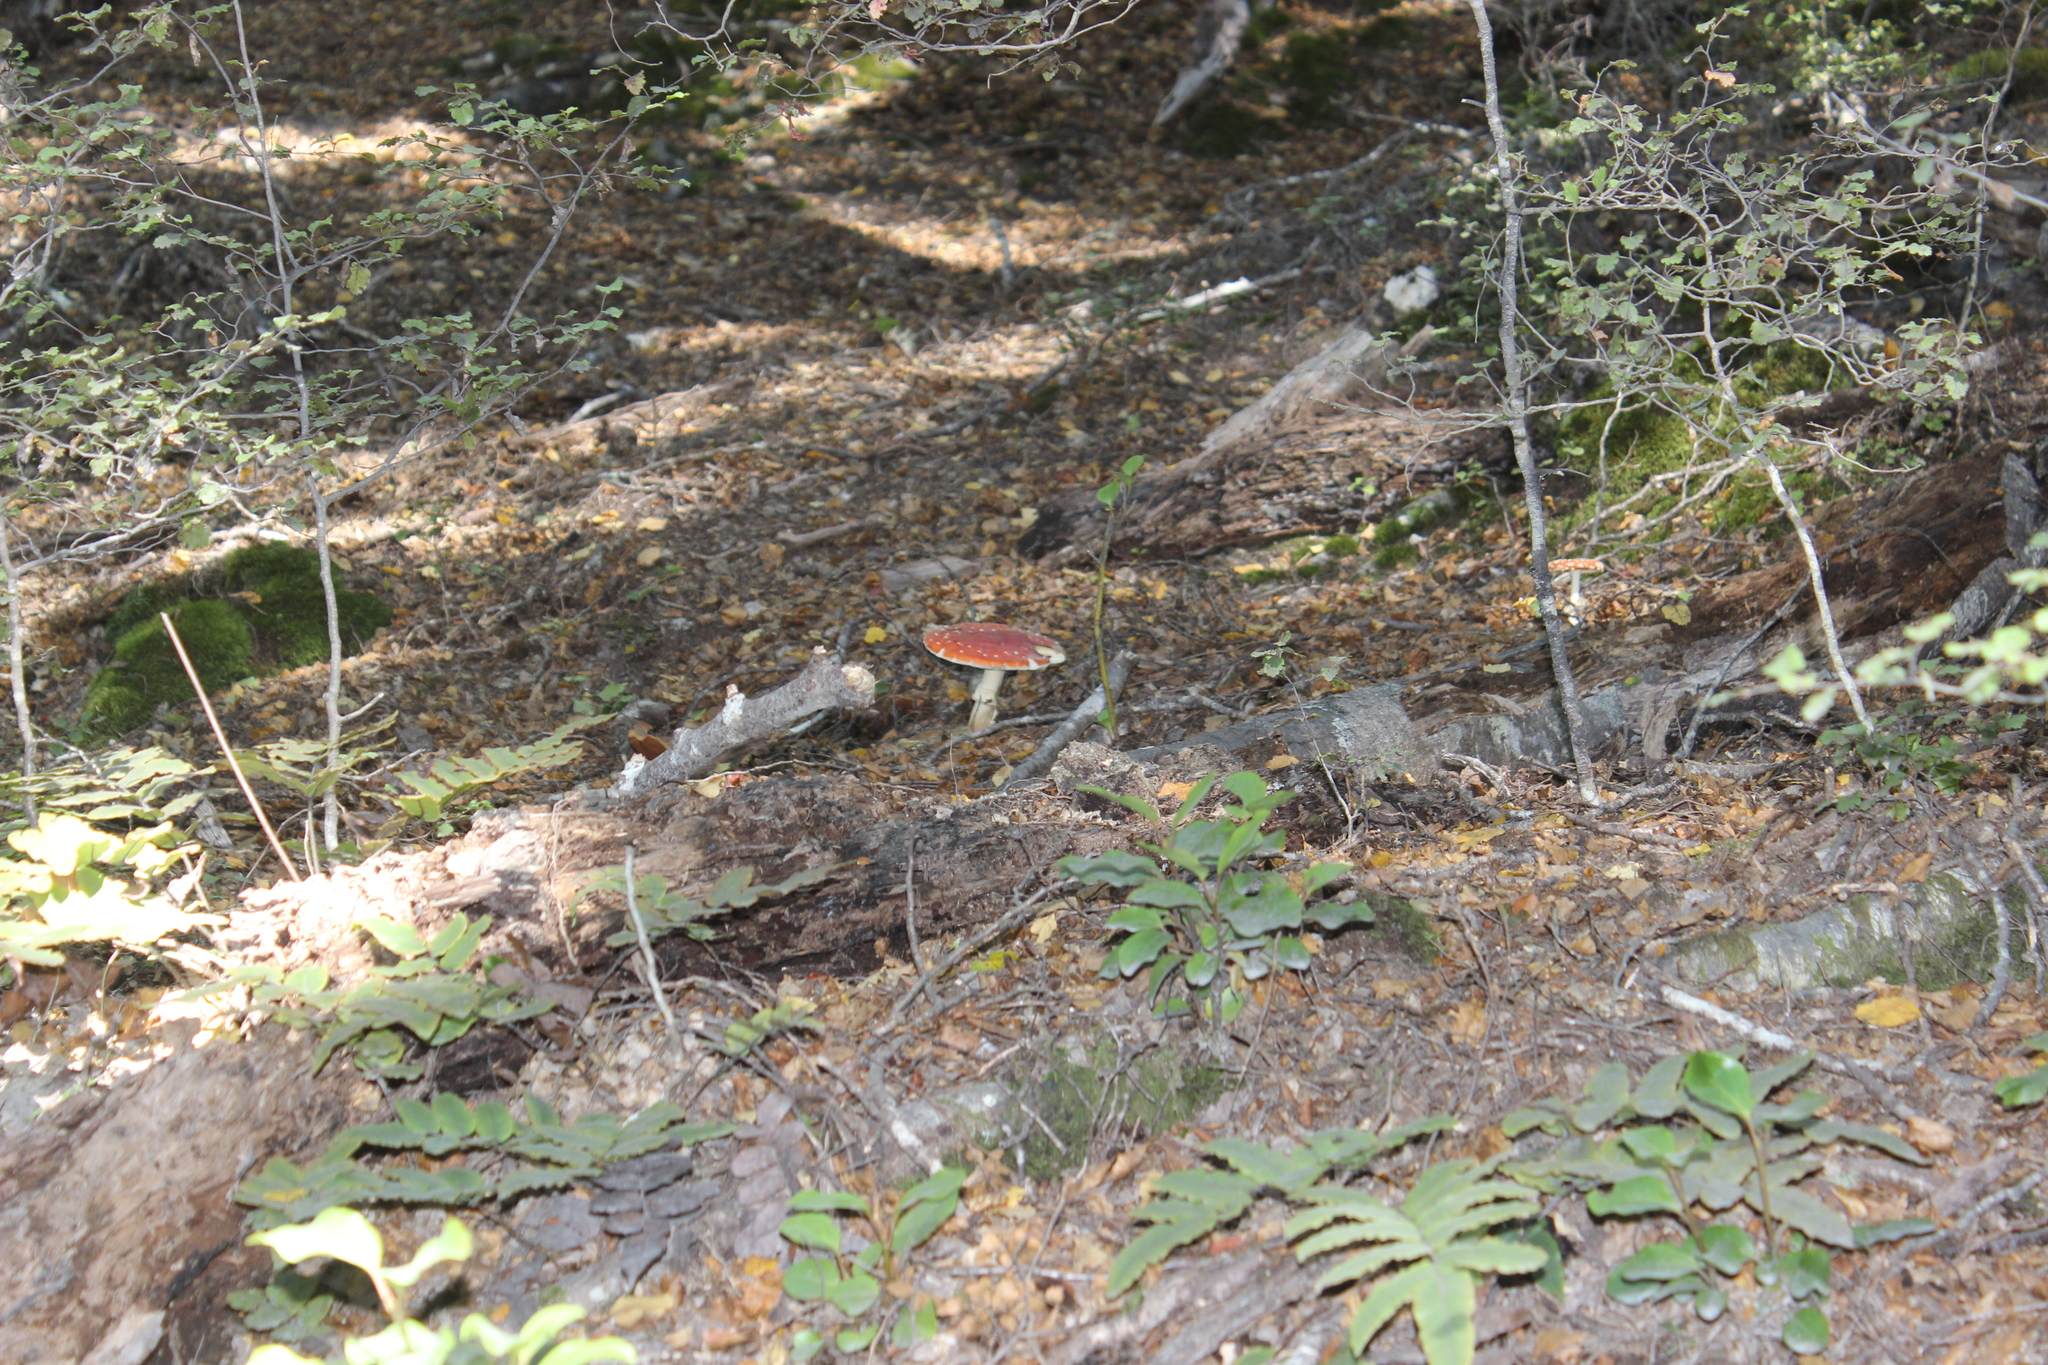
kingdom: Fungi
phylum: Basidiomycota
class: Agaricomycetes
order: Agaricales
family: Amanitaceae
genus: Amanita
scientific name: Amanita muscaria
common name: Fly agaric
